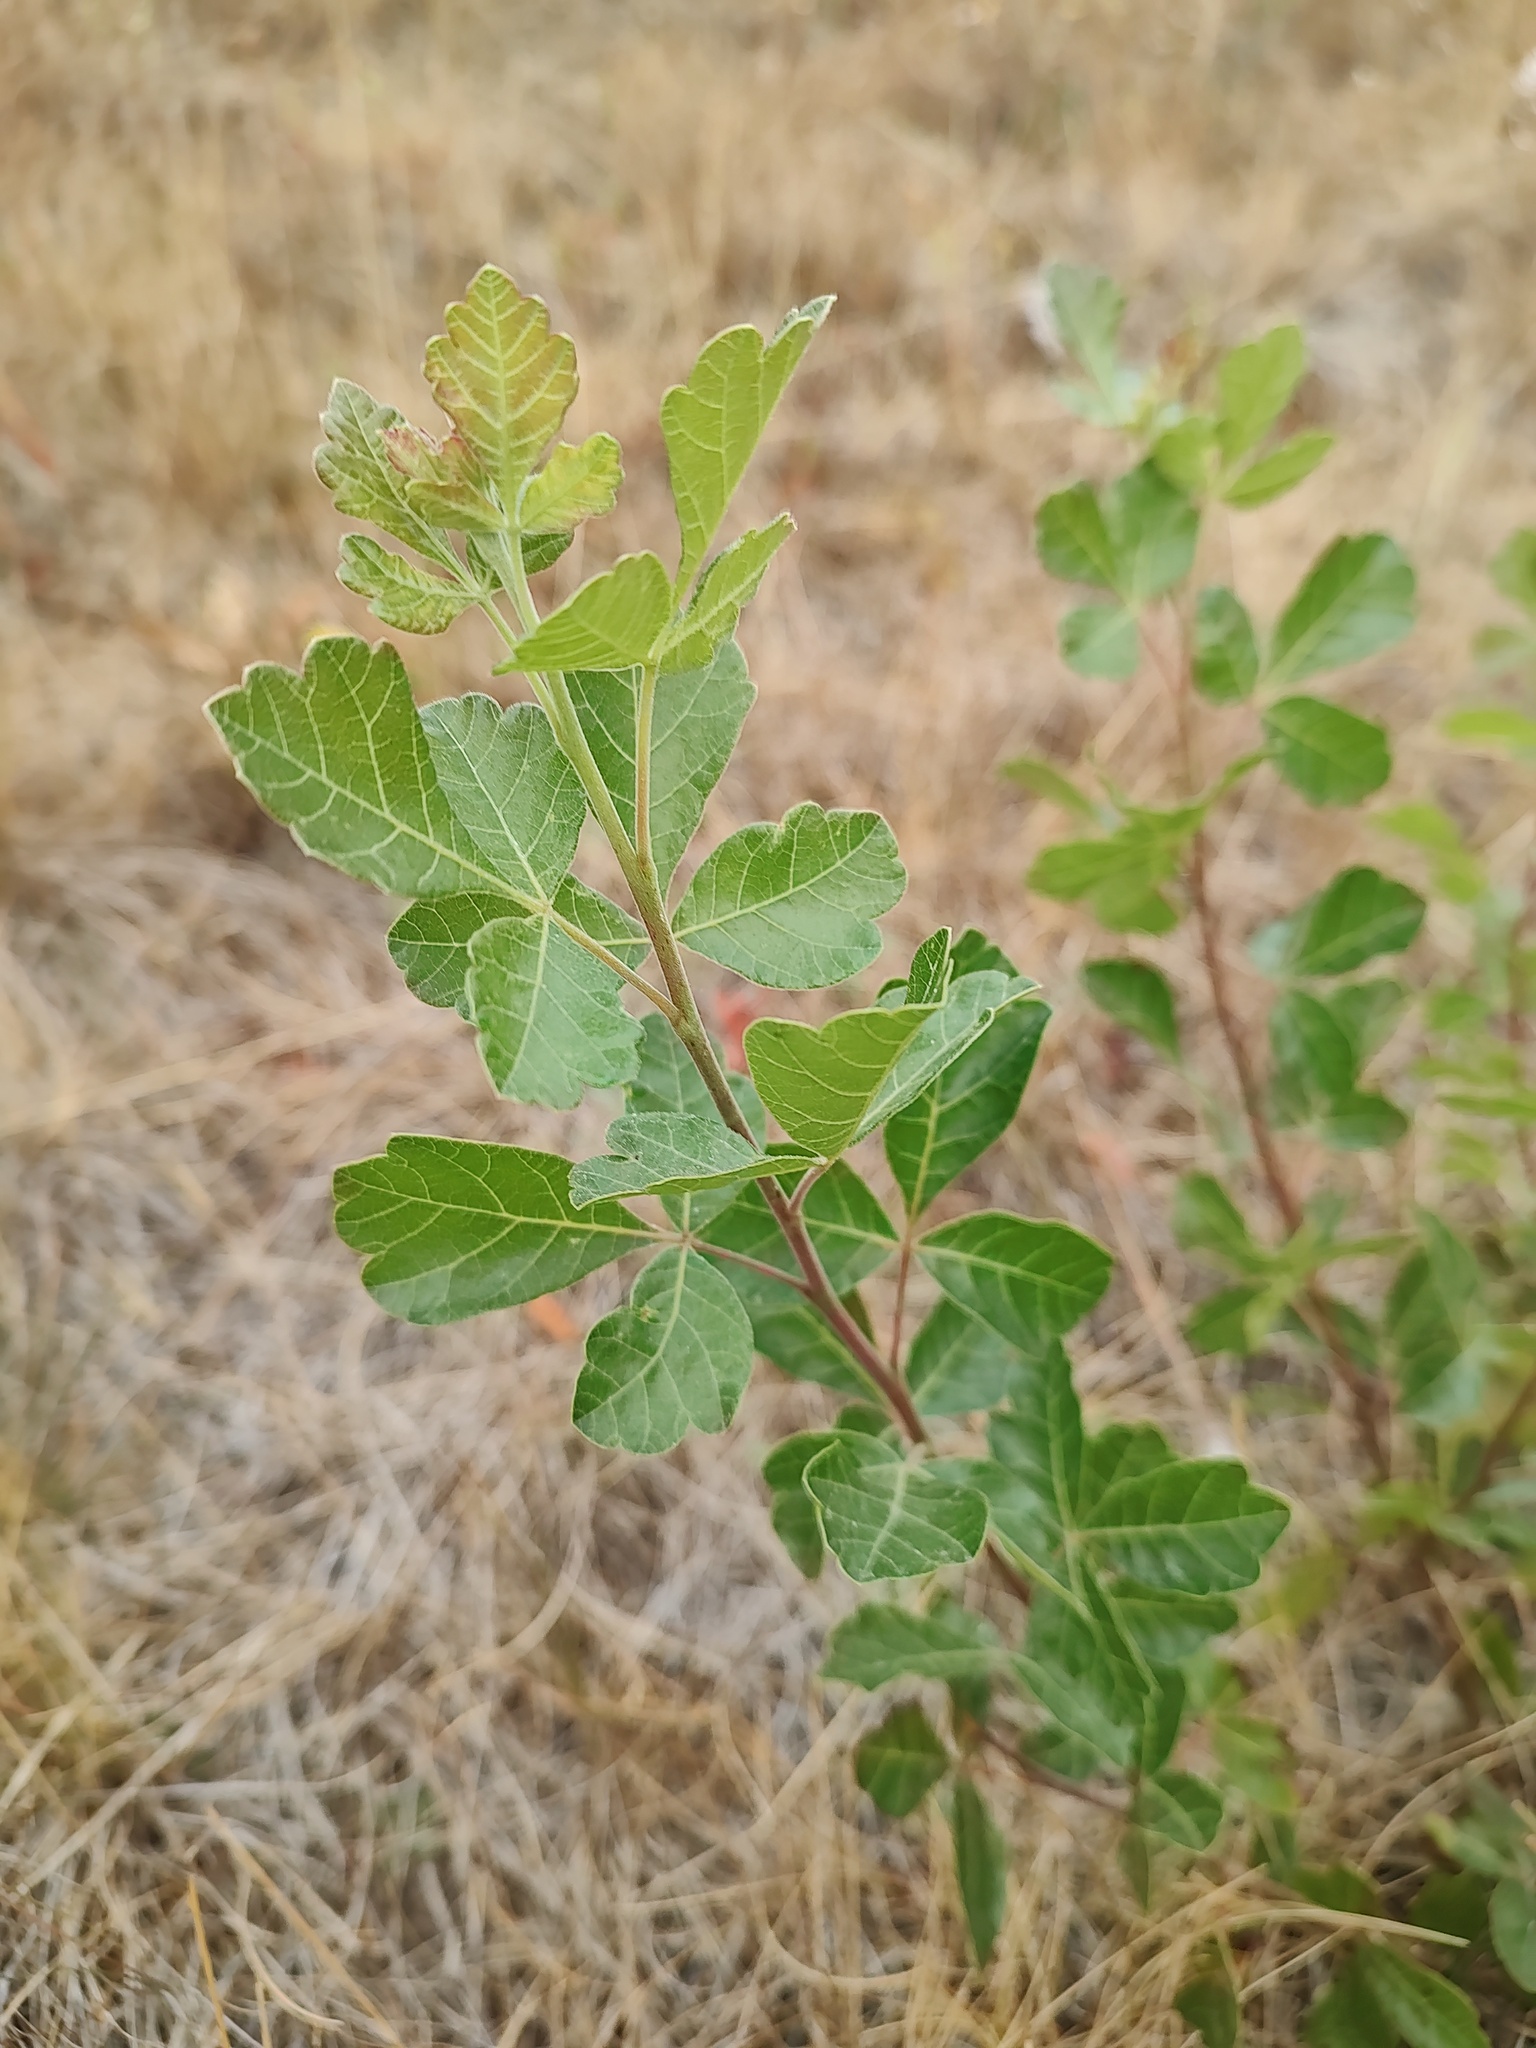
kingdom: Plantae
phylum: Tracheophyta
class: Magnoliopsida
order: Sapindales
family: Anacardiaceae
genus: Rhus
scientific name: Rhus trilobata
